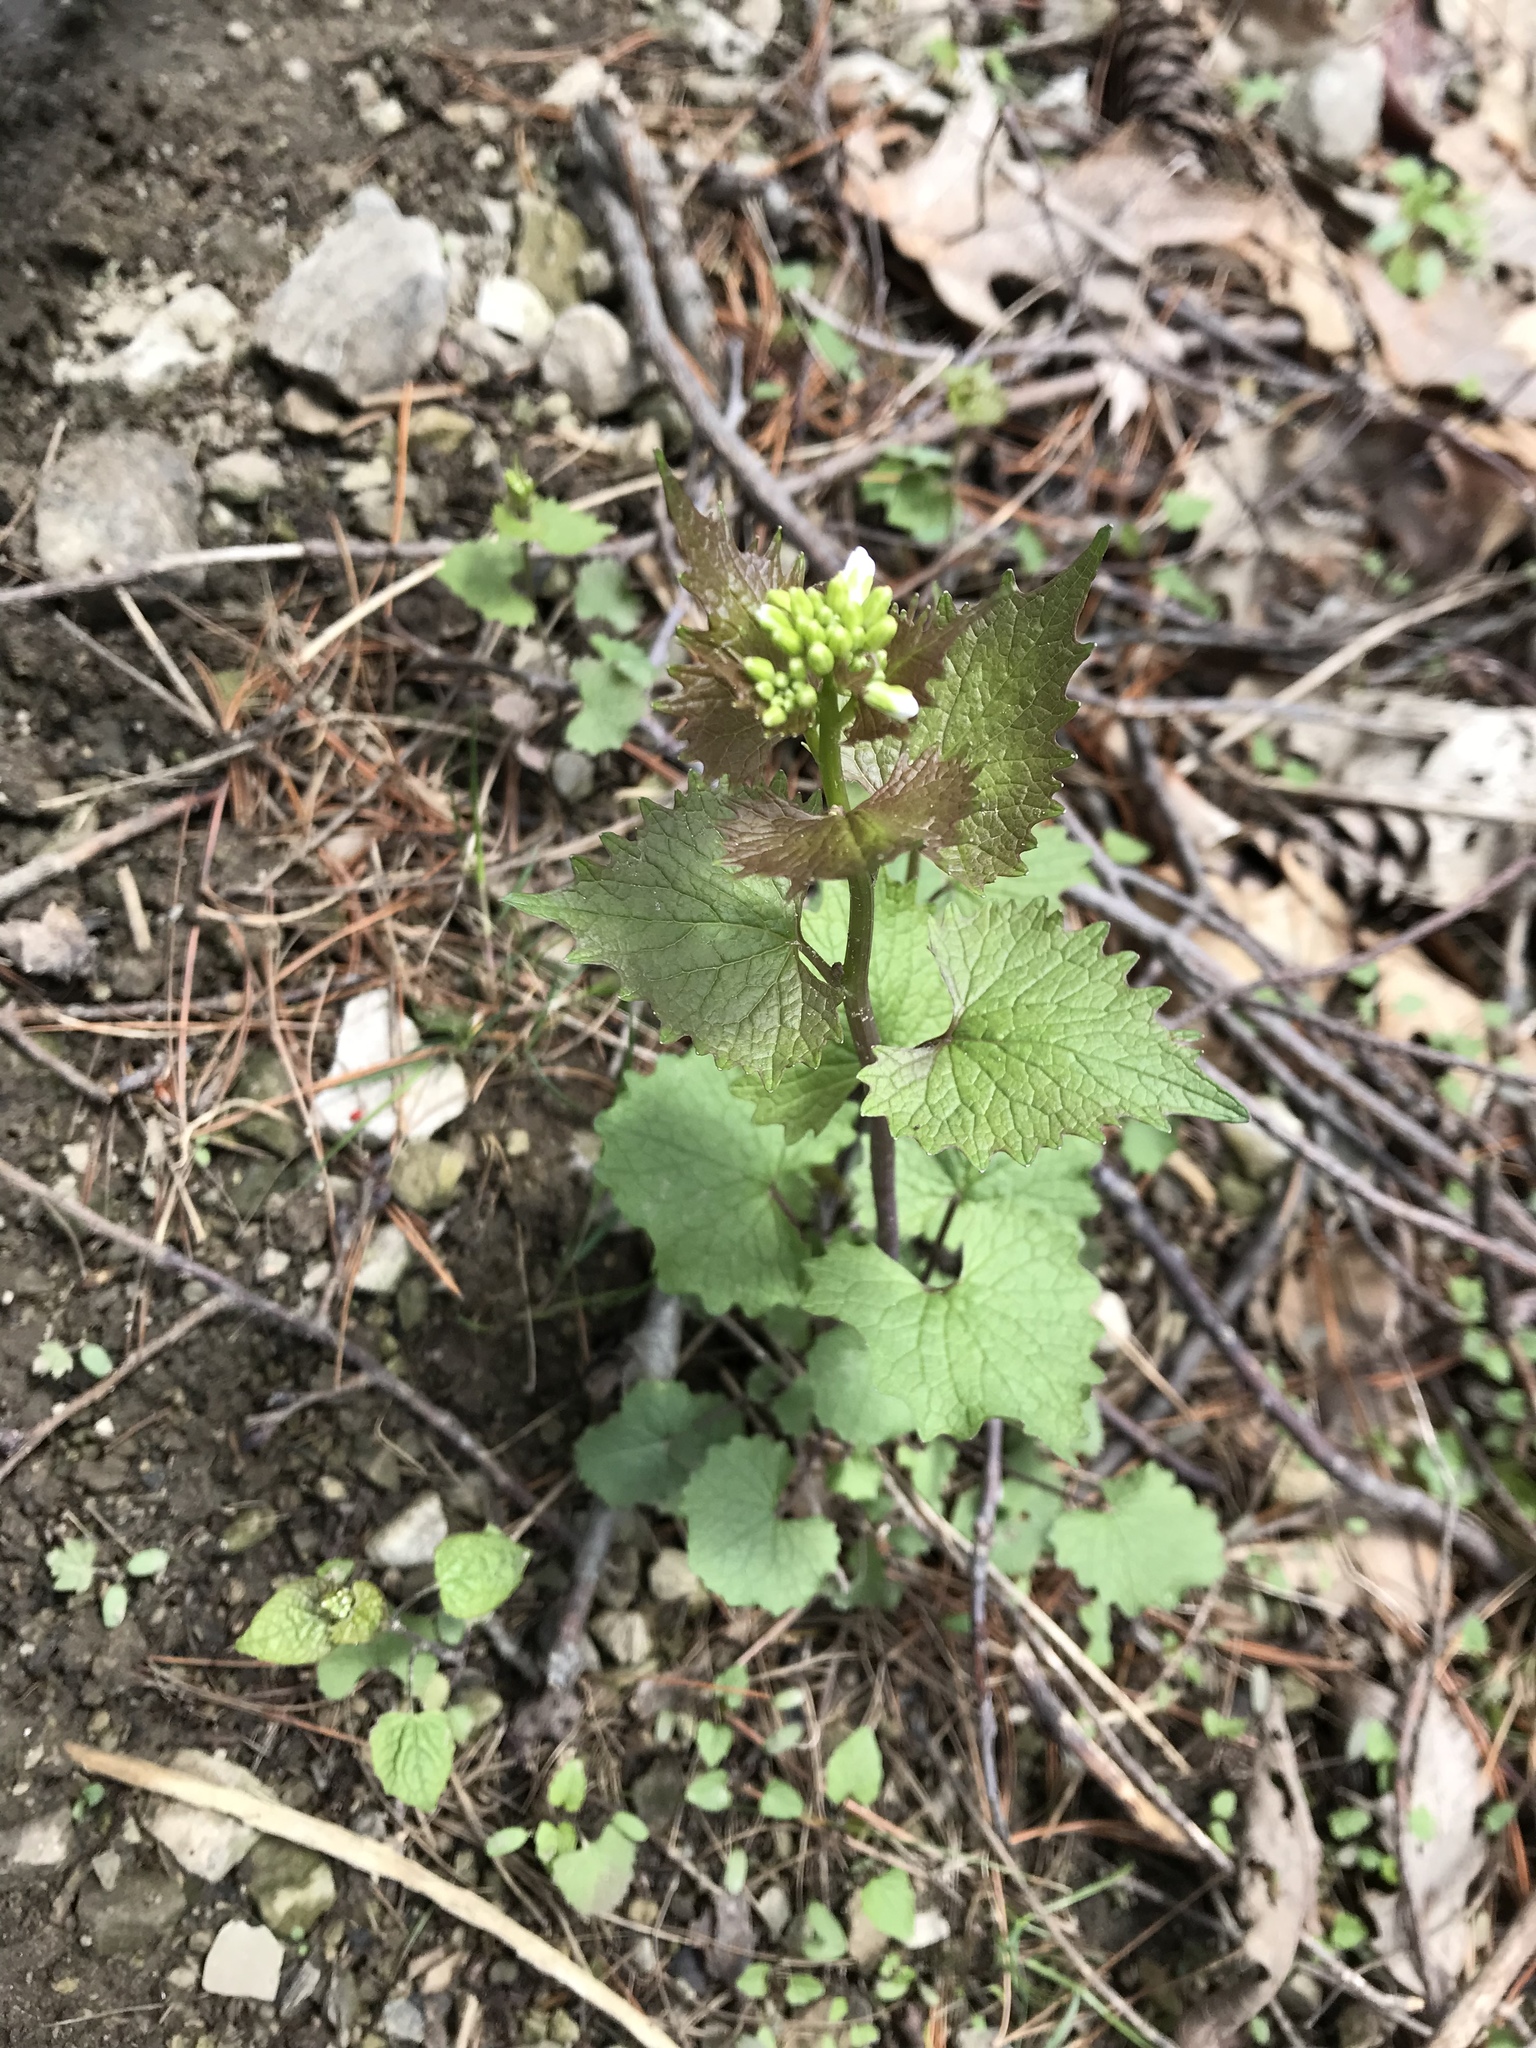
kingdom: Plantae
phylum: Tracheophyta
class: Magnoliopsida
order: Brassicales
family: Brassicaceae
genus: Alliaria
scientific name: Alliaria petiolata
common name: Garlic mustard
